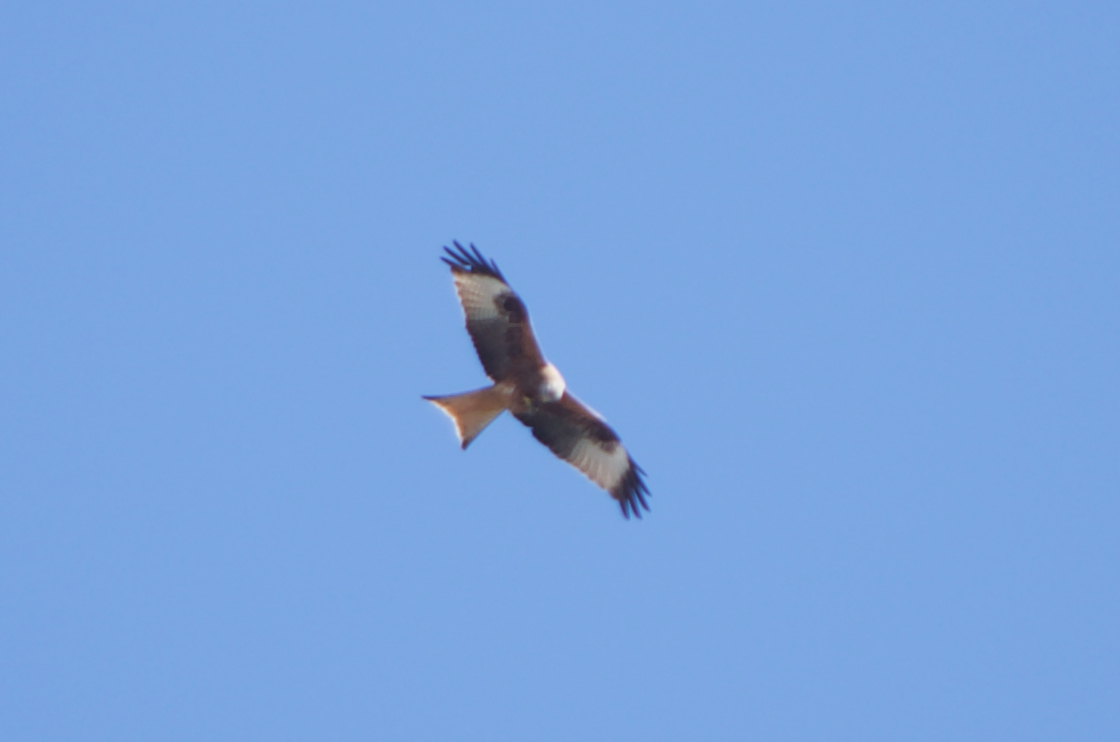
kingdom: Animalia
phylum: Chordata
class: Aves
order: Accipitriformes
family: Accipitridae
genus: Milvus
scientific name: Milvus milvus
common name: Red kite
